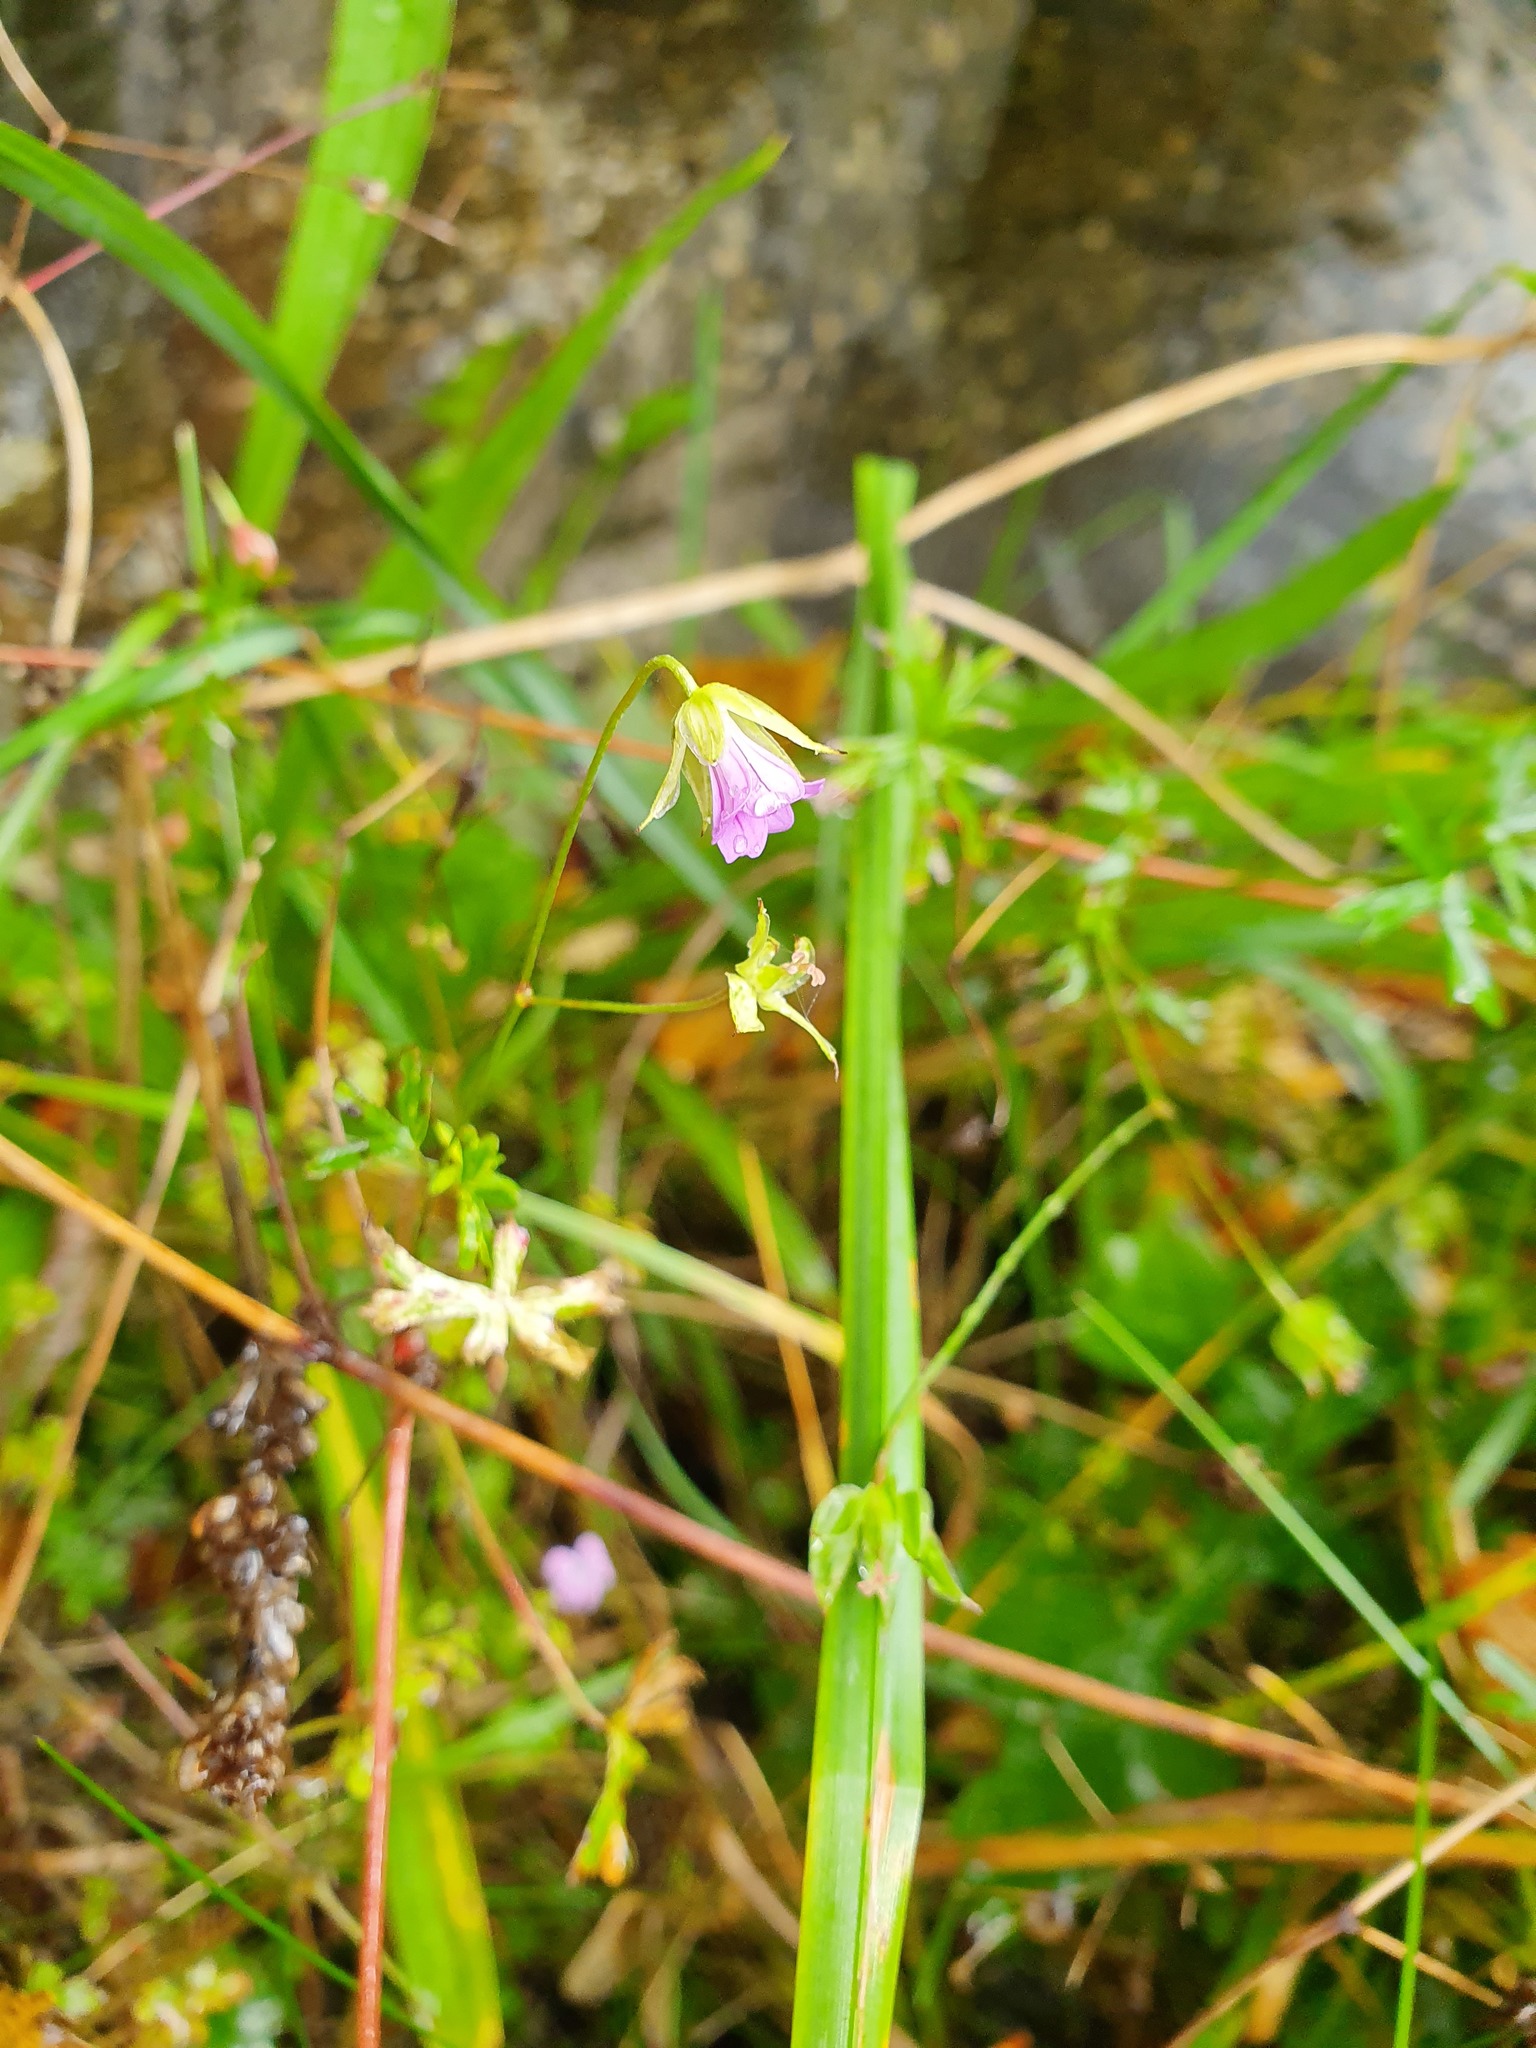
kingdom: Plantae
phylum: Tracheophyta
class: Magnoliopsida
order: Geraniales
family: Geraniaceae
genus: Geranium
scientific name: Geranium columbinum
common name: Long-stalked crane's-bill
